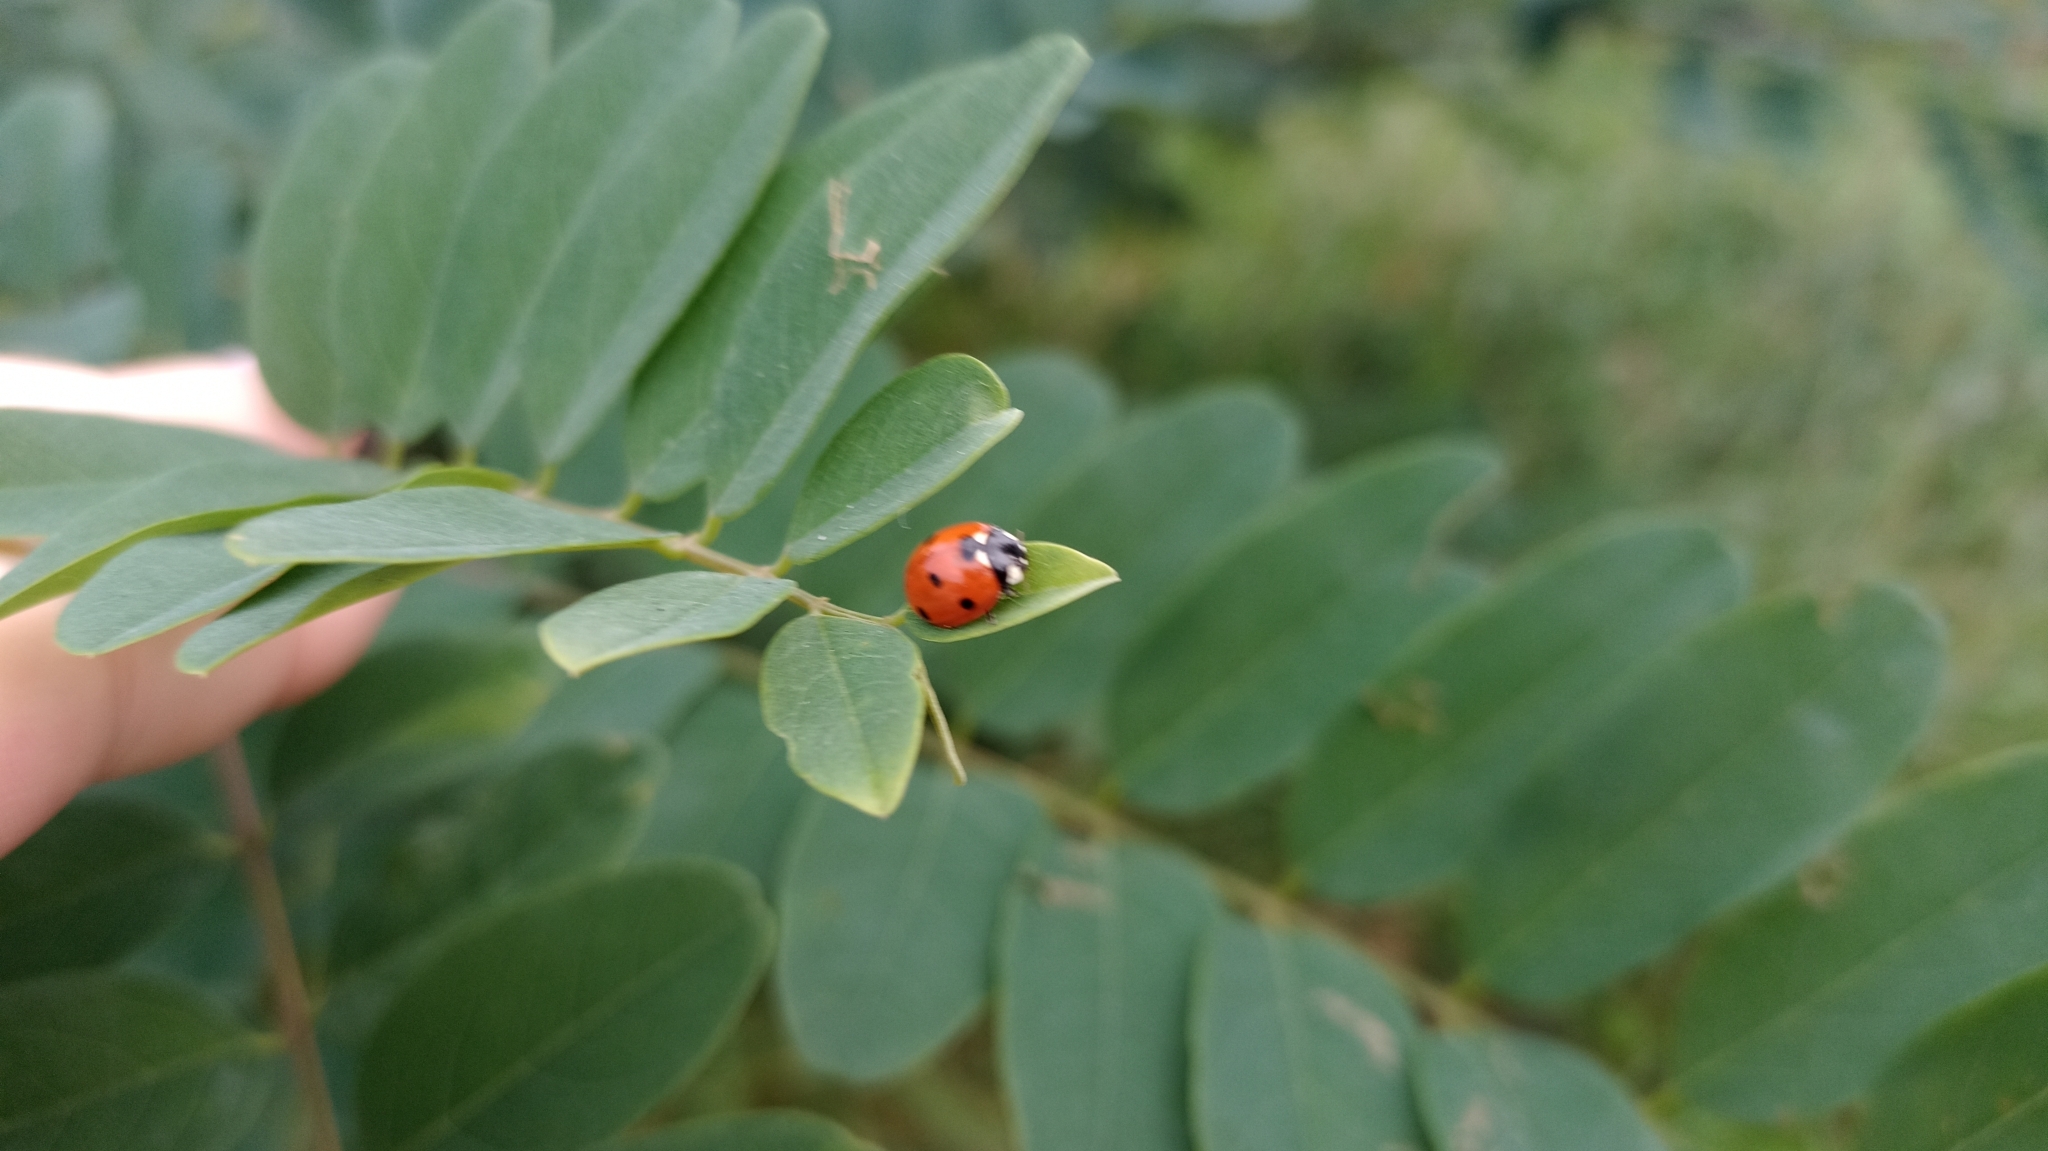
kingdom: Animalia
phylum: Arthropoda
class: Insecta
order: Coleoptera
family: Coccinellidae
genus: Coccinella
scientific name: Coccinella septempunctata
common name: Sevenspotted lady beetle
